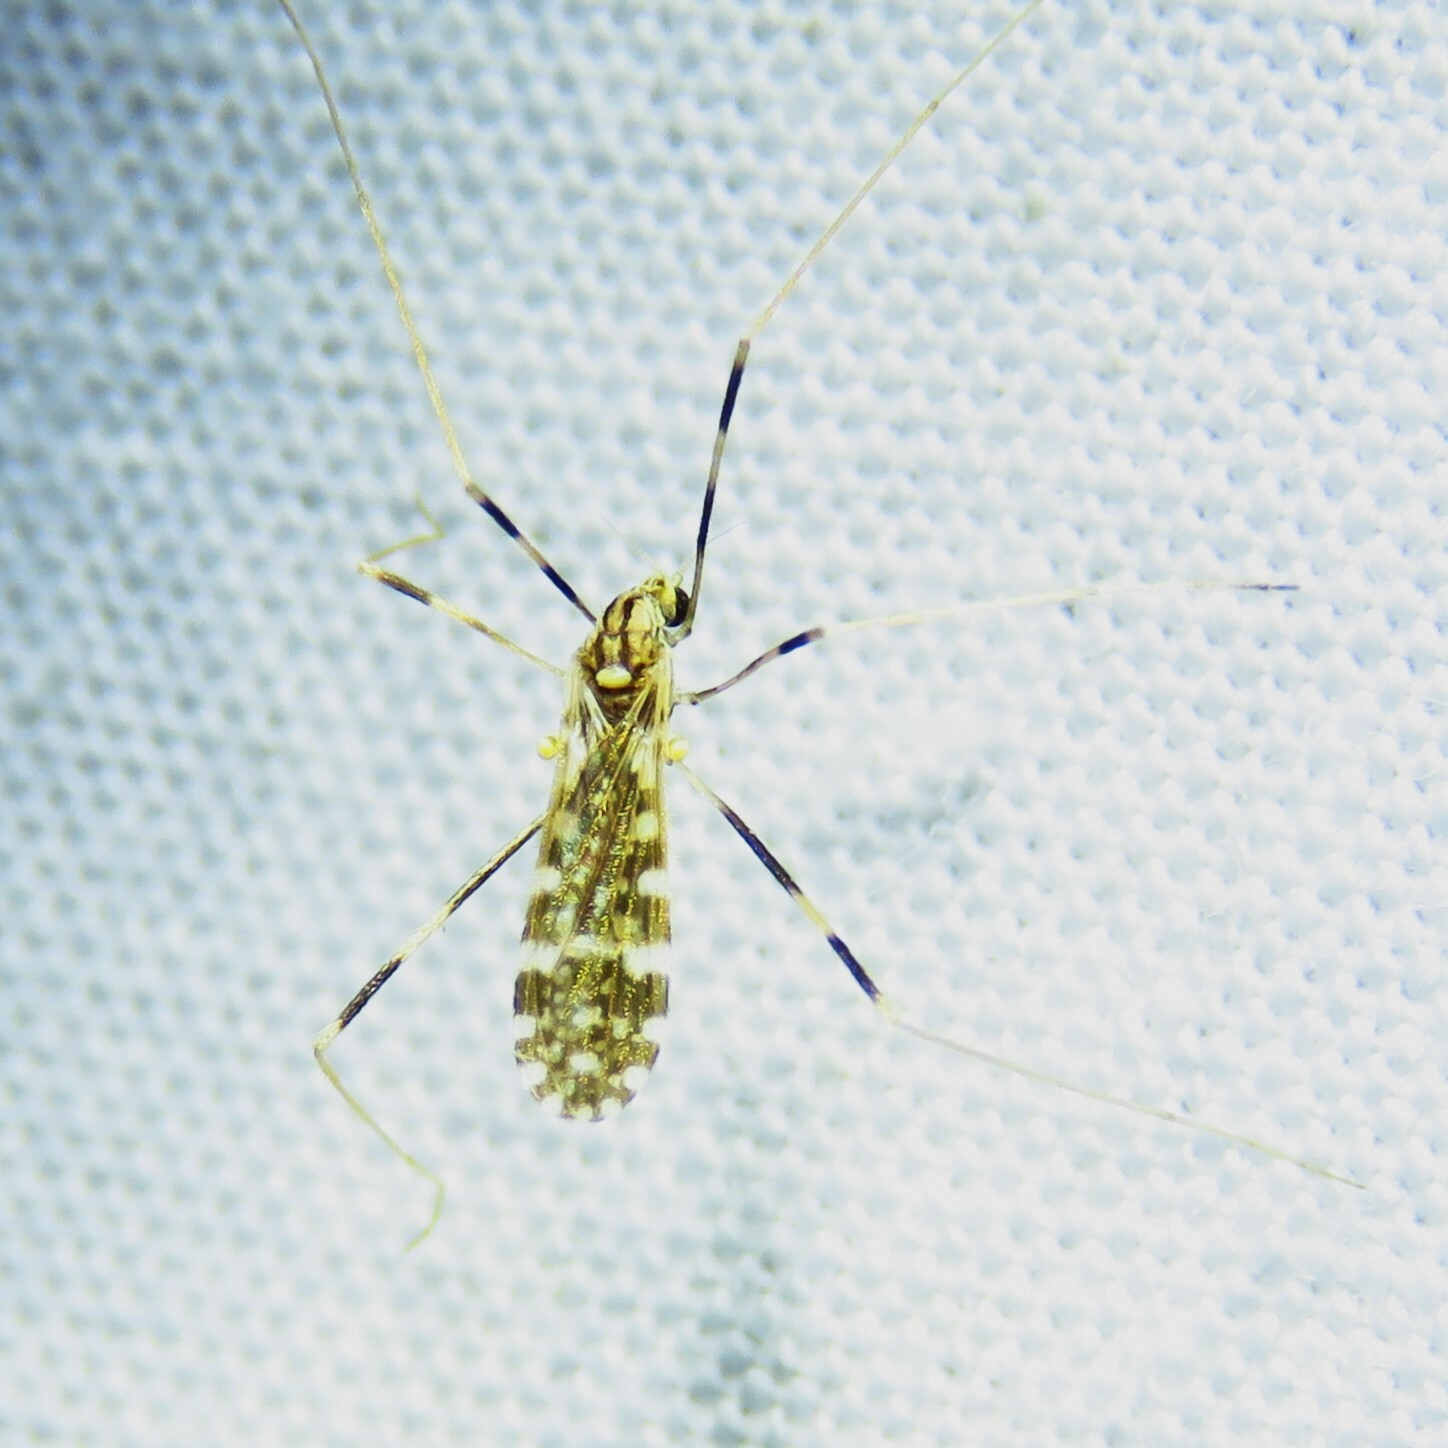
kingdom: Animalia
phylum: Arthropoda
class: Insecta
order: Diptera
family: Limoniidae
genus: Erioptera
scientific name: Erioptera caliptera
